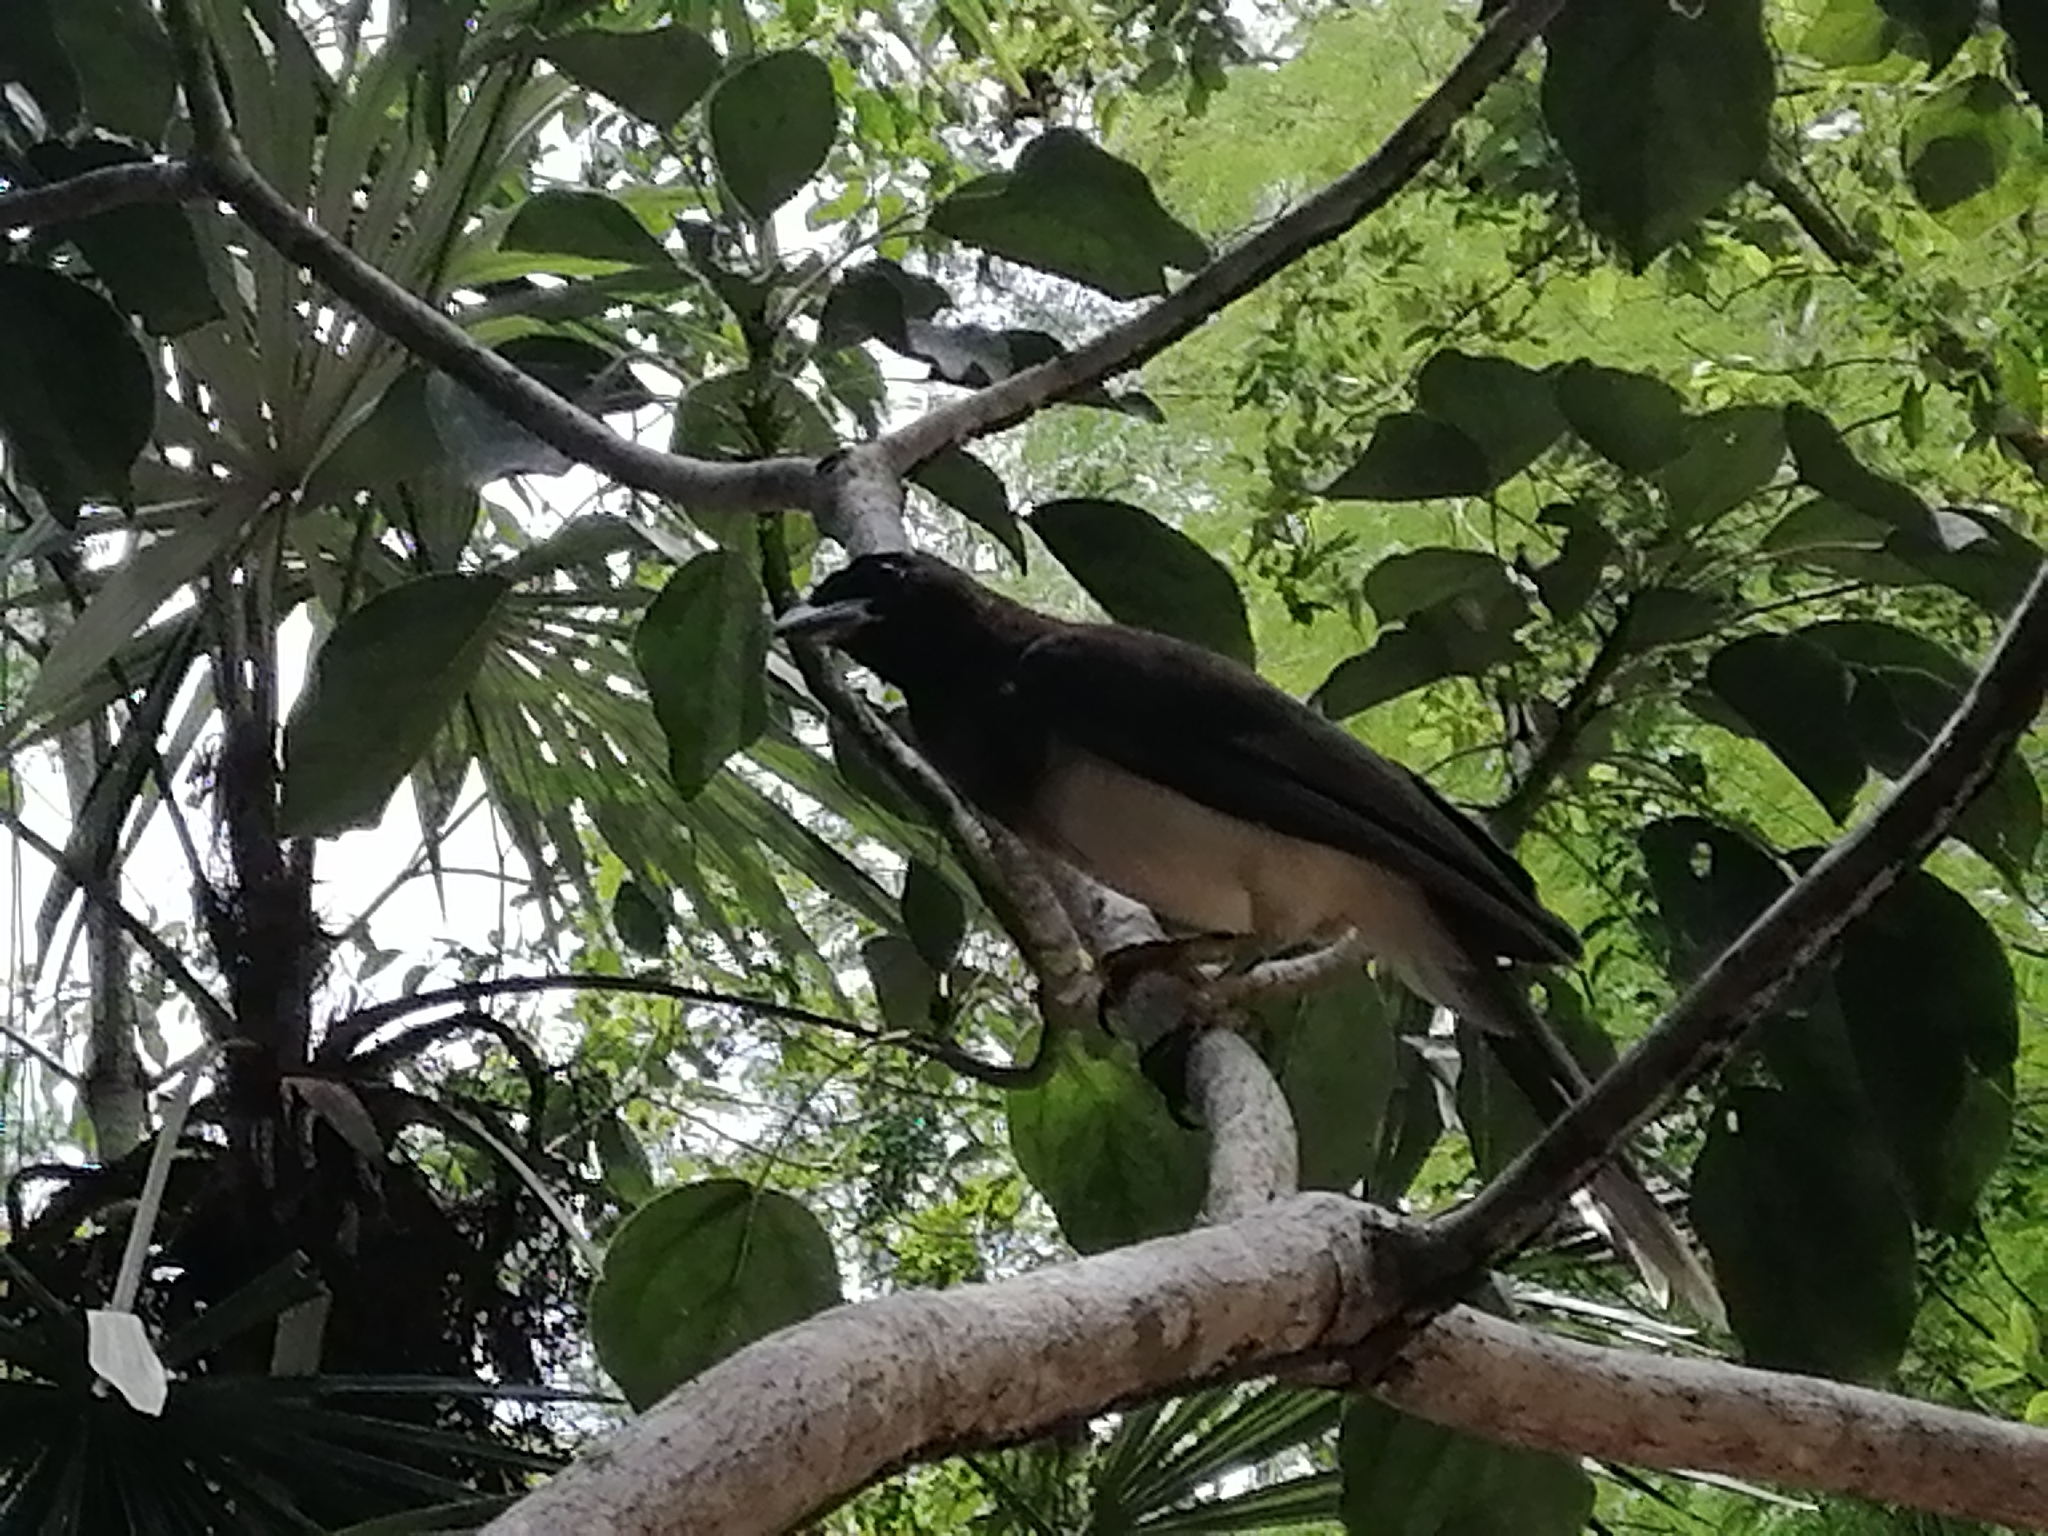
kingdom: Animalia
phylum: Chordata
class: Aves
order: Passeriformes
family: Corvidae
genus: Psilorhinus
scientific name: Psilorhinus morio
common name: Brown jay
